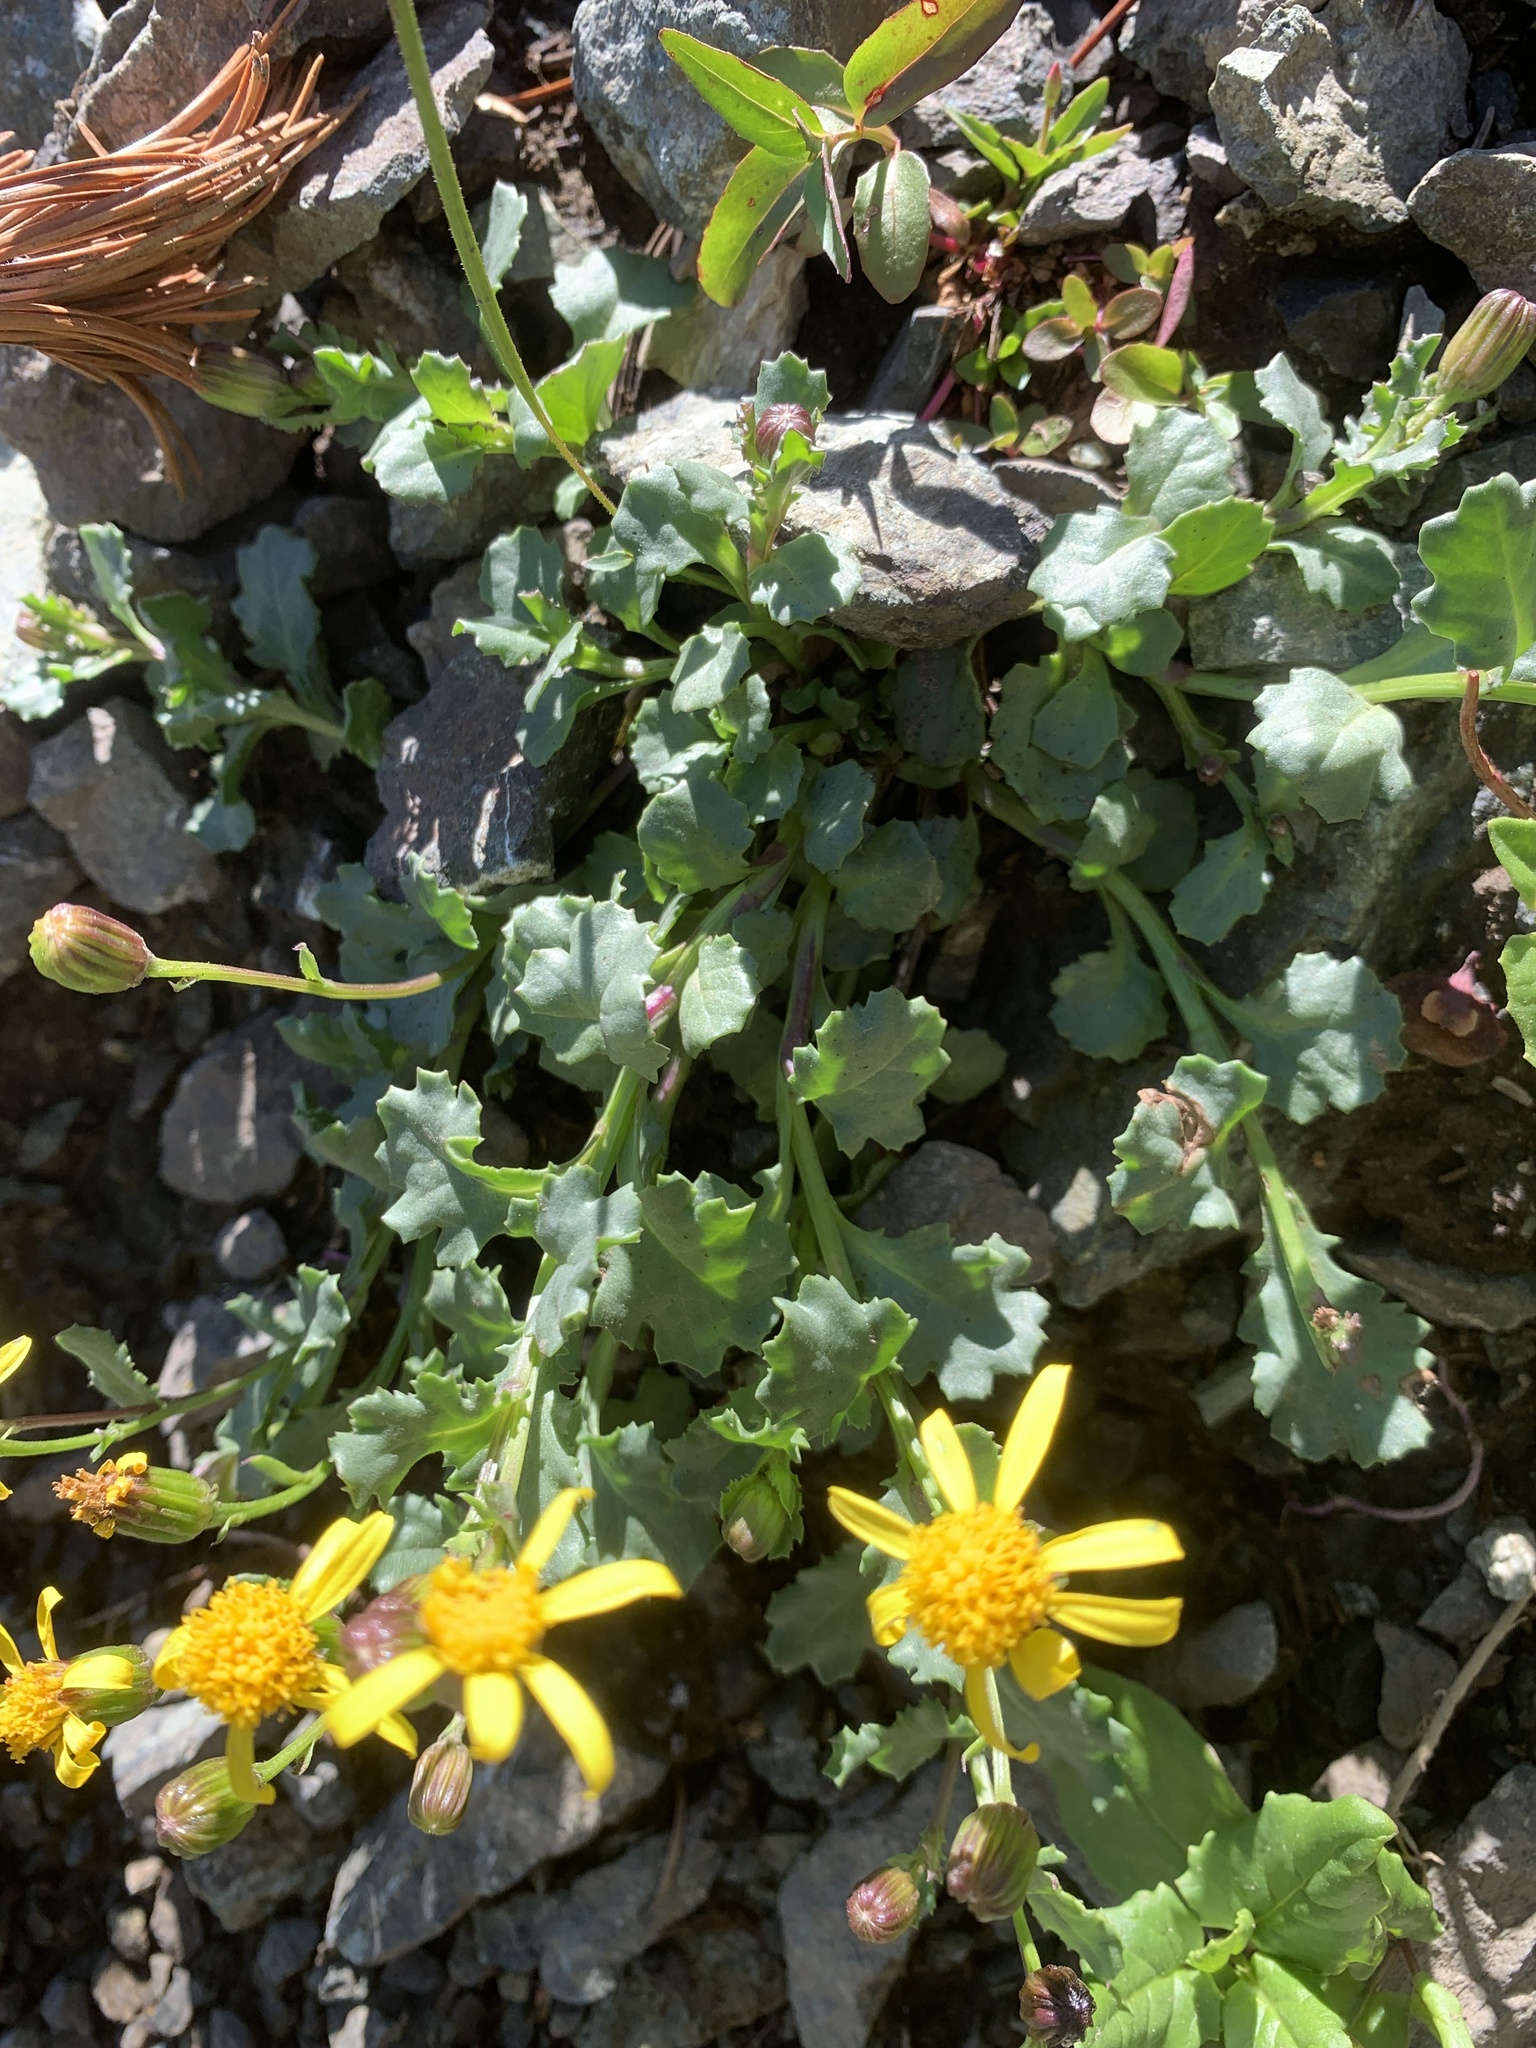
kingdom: Plantae
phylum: Tracheophyta
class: Magnoliopsida
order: Asterales
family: Asteraceae
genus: Senecio
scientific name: Senecio fremontii
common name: Fremont's groundsel
